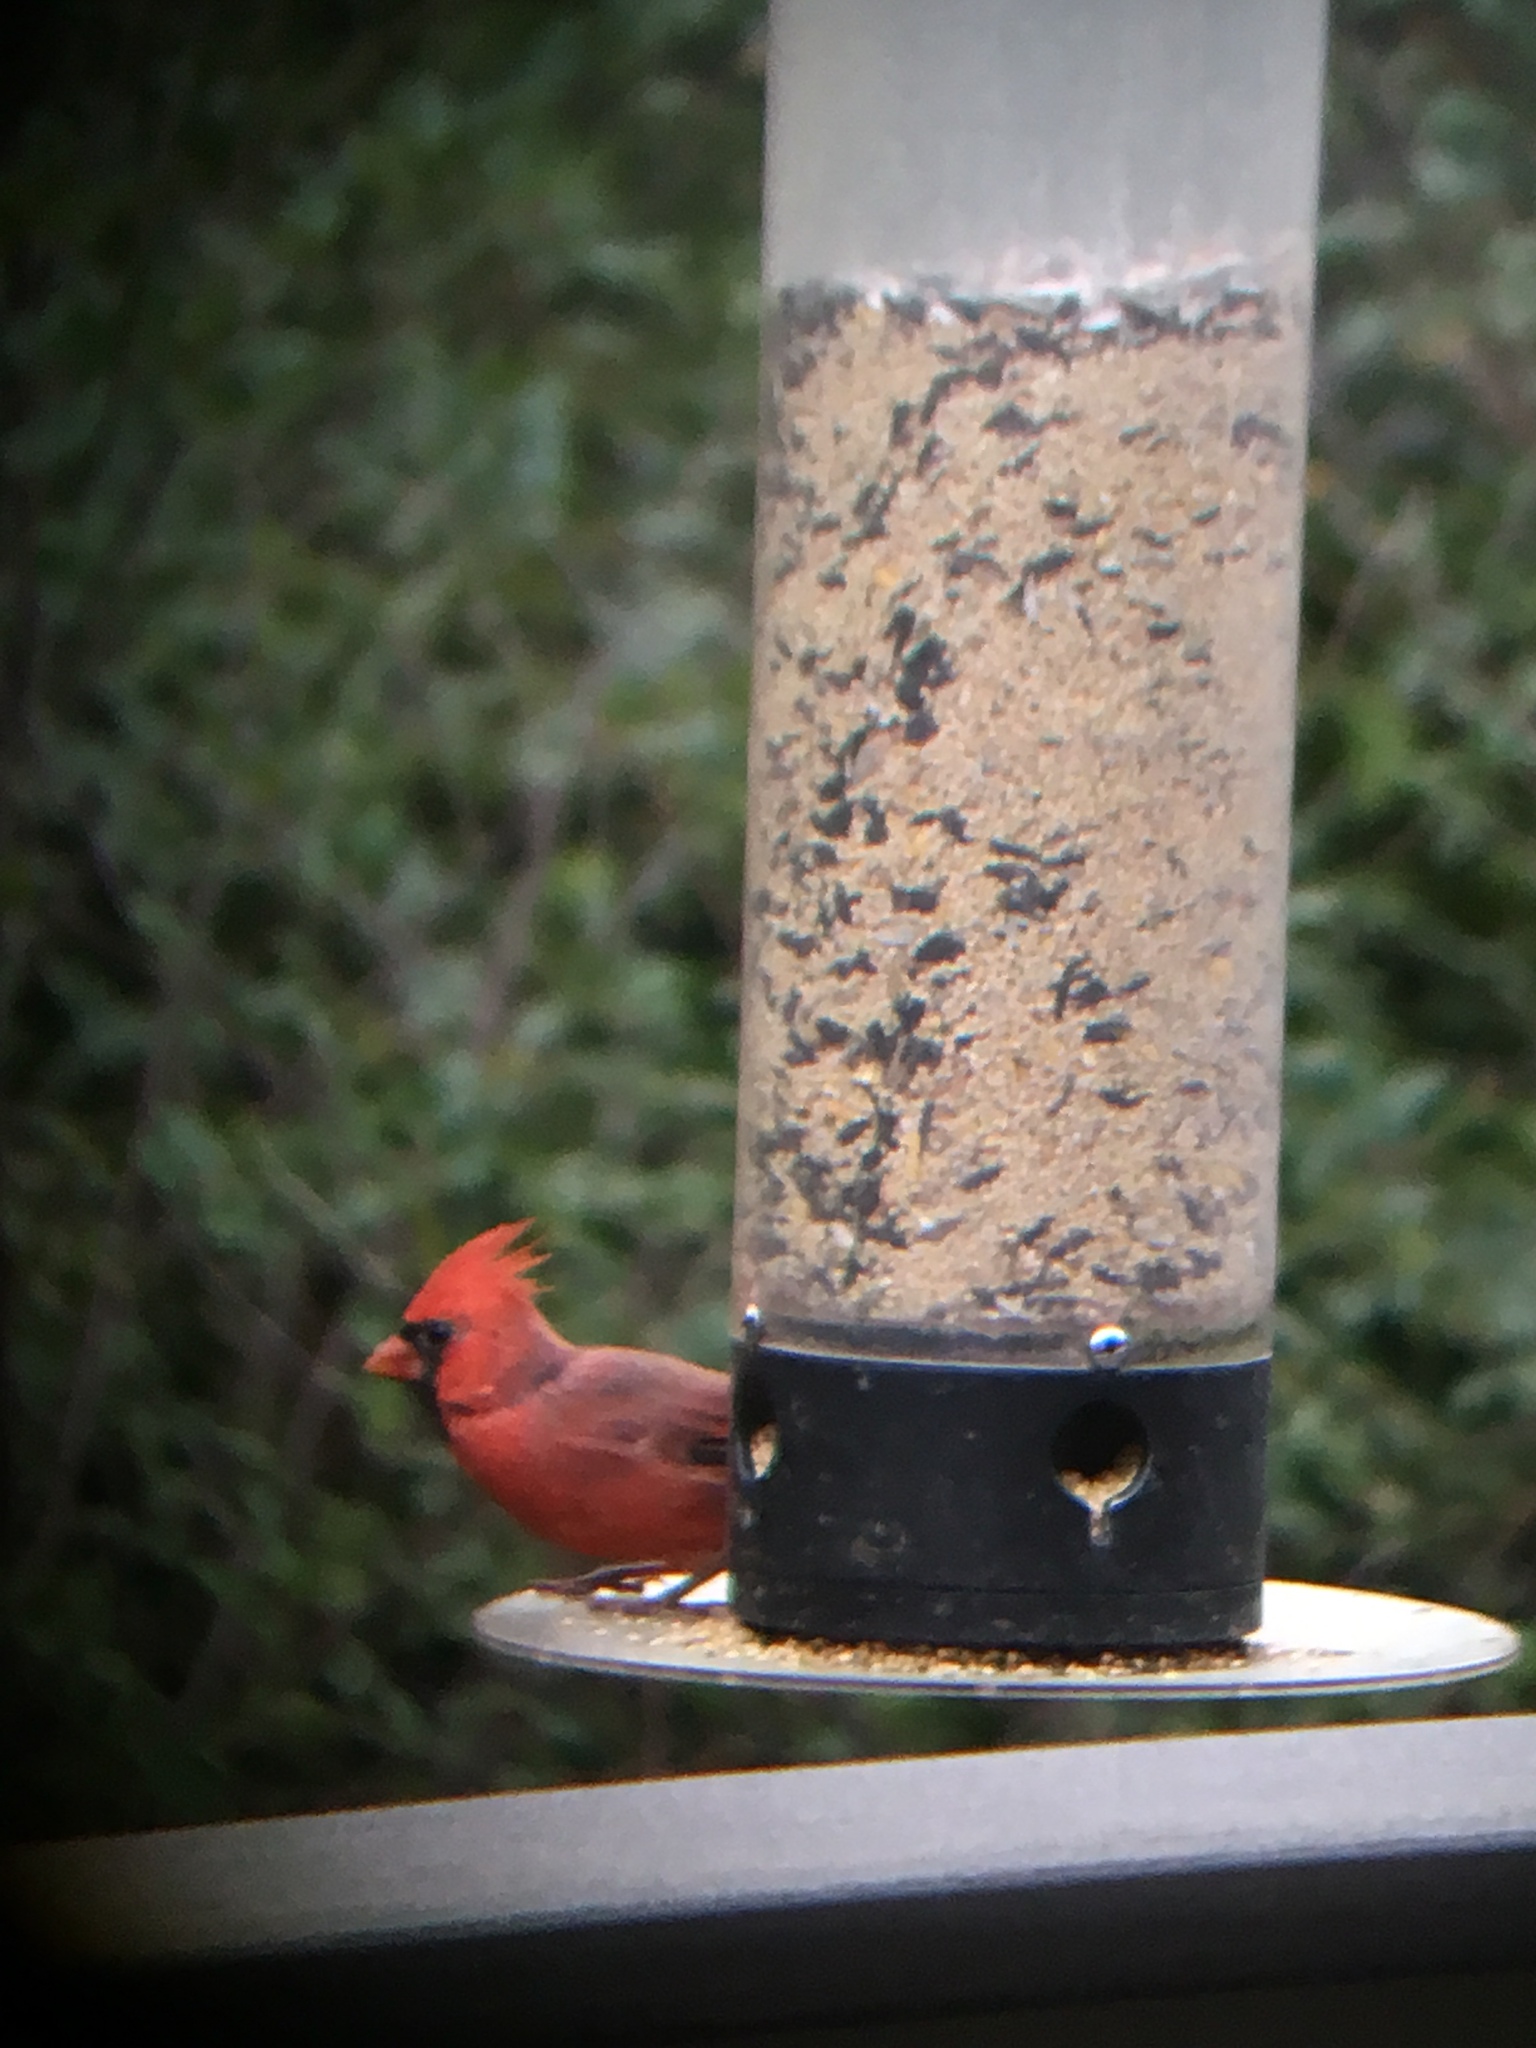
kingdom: Animalia
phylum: Chordata
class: Aves
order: Passeriformes
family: Cardinalidae
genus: Cardinalis
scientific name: Cardinalis cardinalis
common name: Northern cardinal
